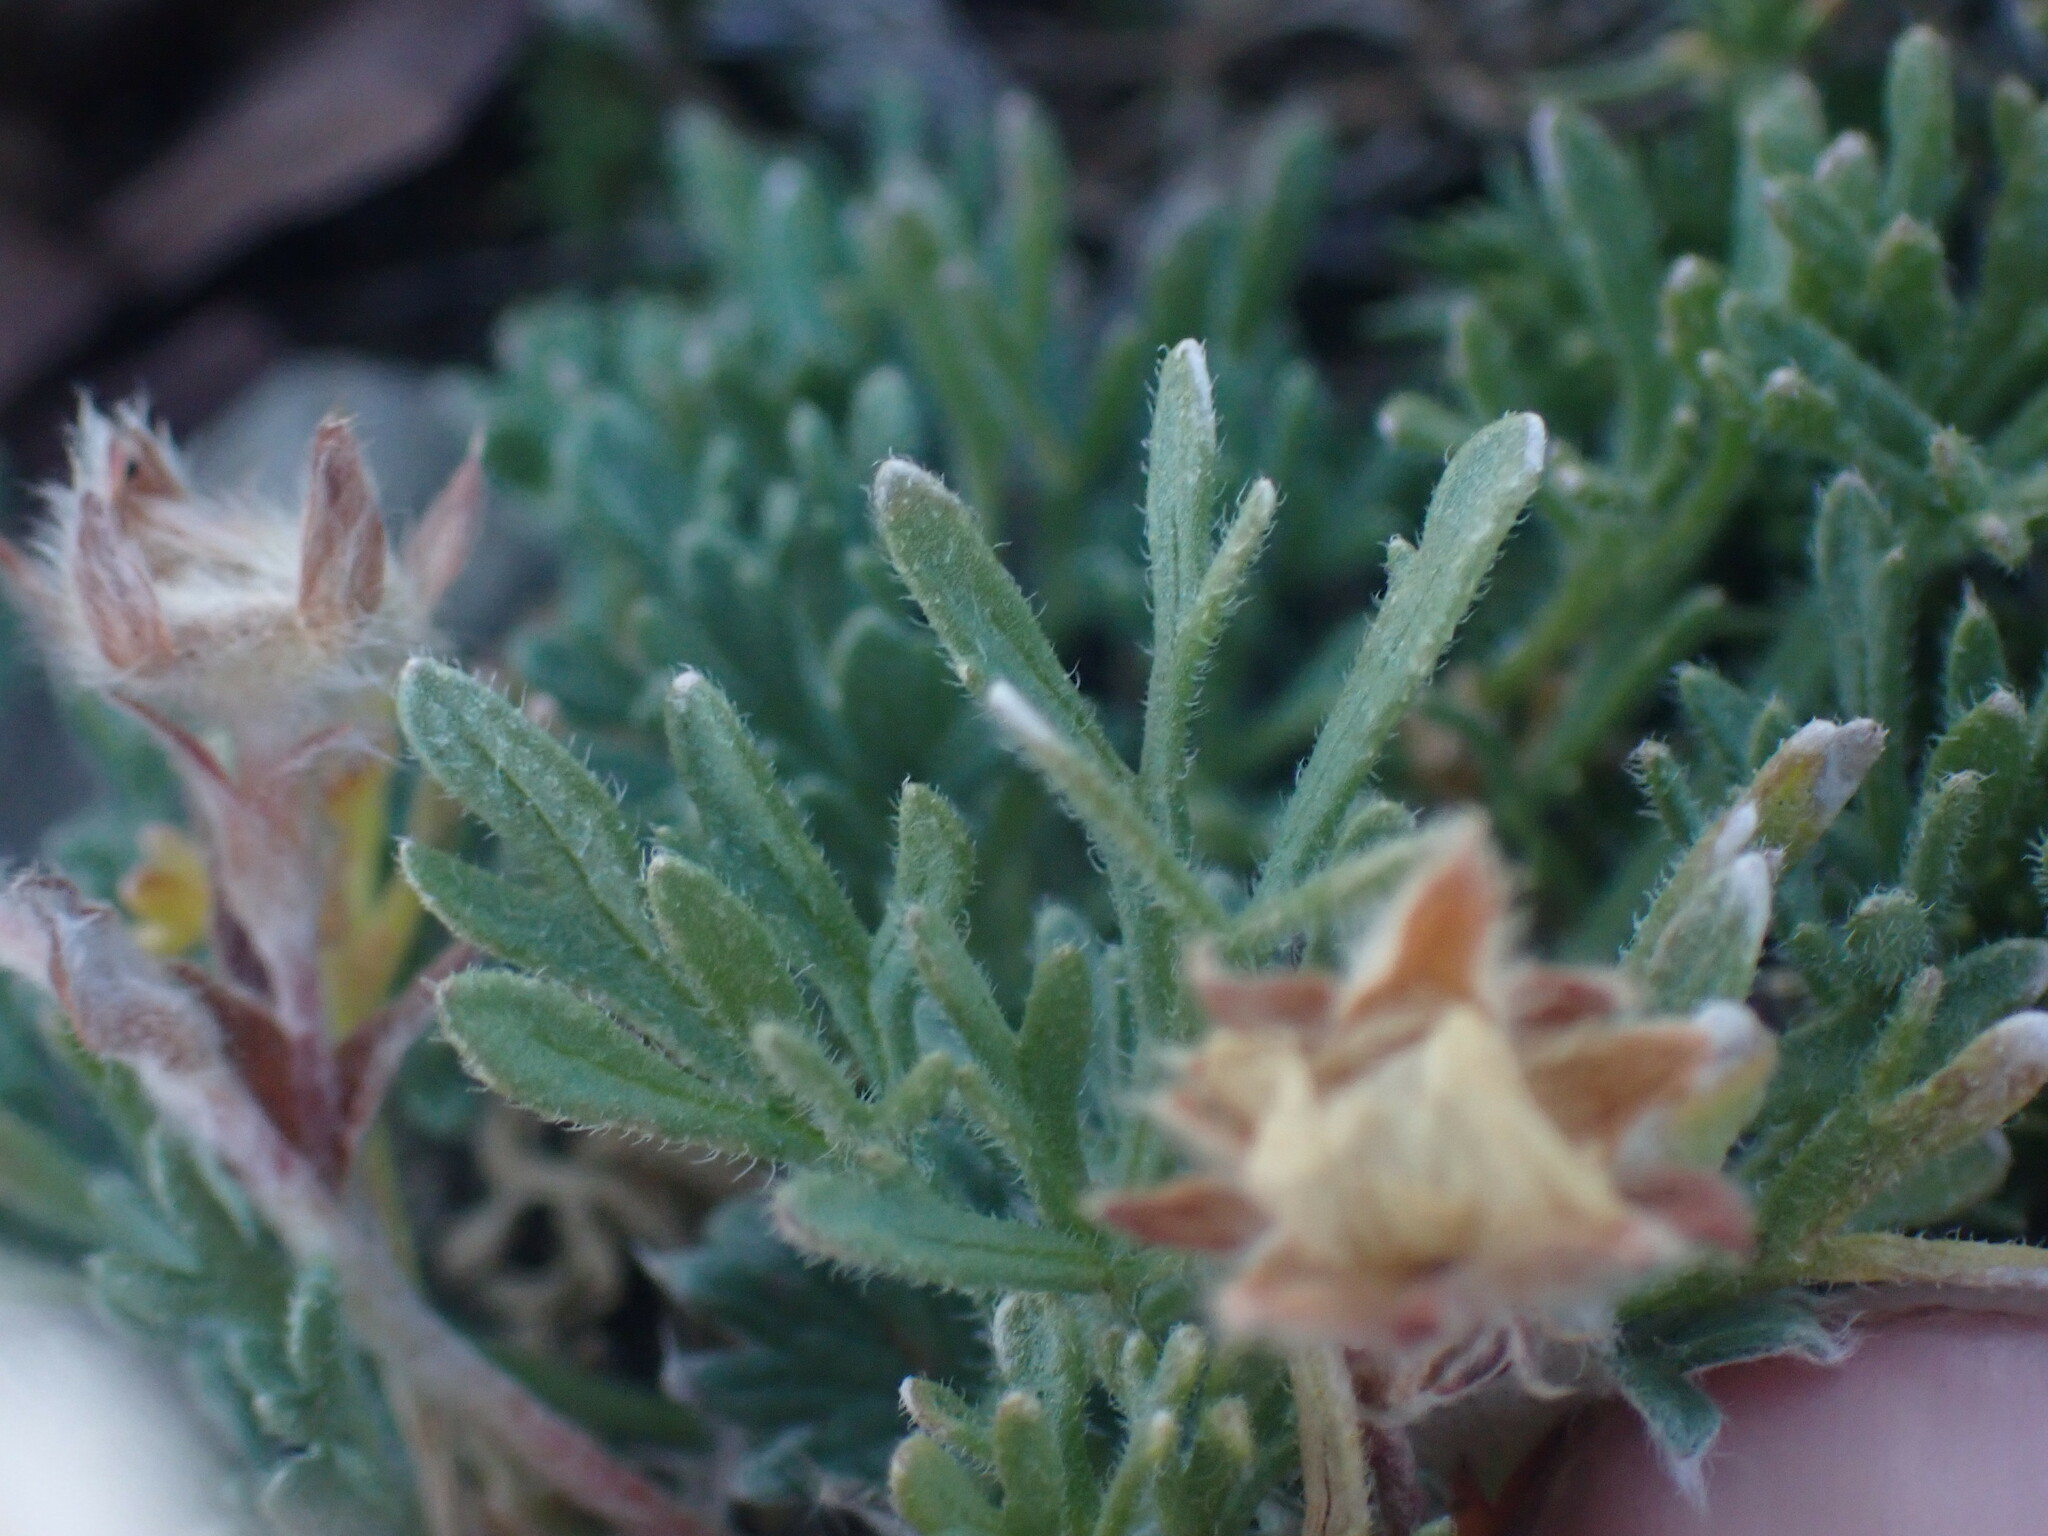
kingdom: Plantae
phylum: Tracheophyta
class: Magnoliopsida
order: Asterales
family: Asteraceae
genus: Erigeron
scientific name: Erigeron compositus
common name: Dwarf mountain fleabane
